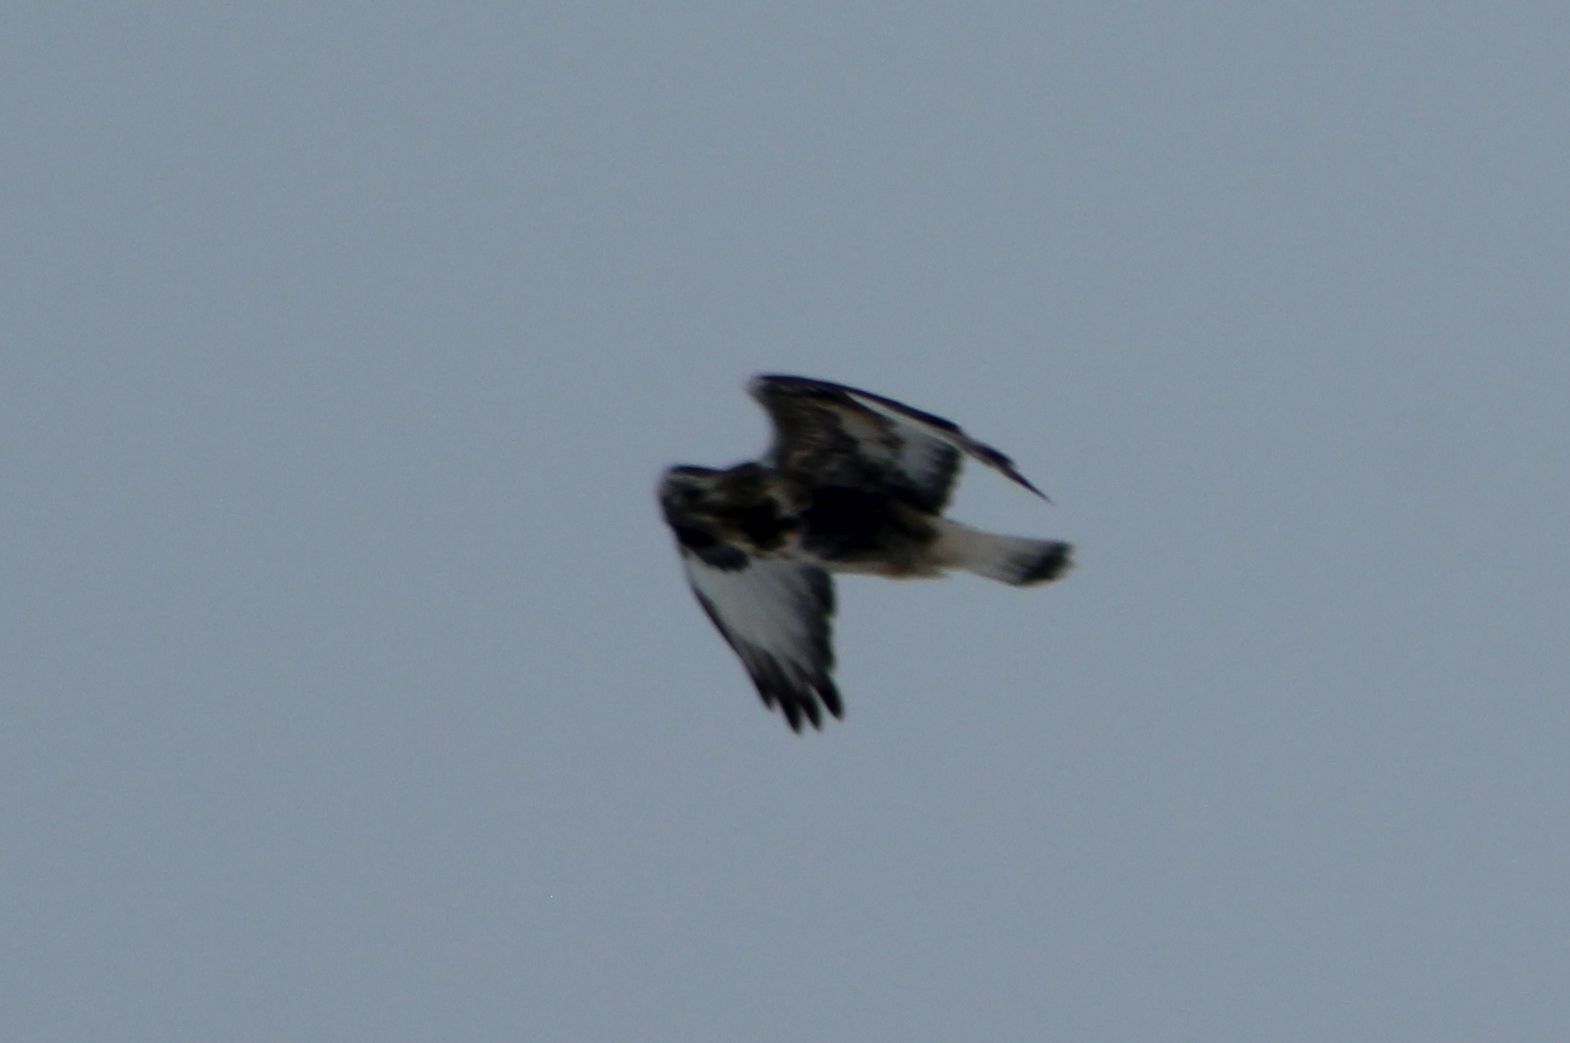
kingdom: Animalia
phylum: Chordata
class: Aves
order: Accipitriformes
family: Accipitridae
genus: Buteo
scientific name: Buteo lagopus
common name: Rough-legged buzzard
